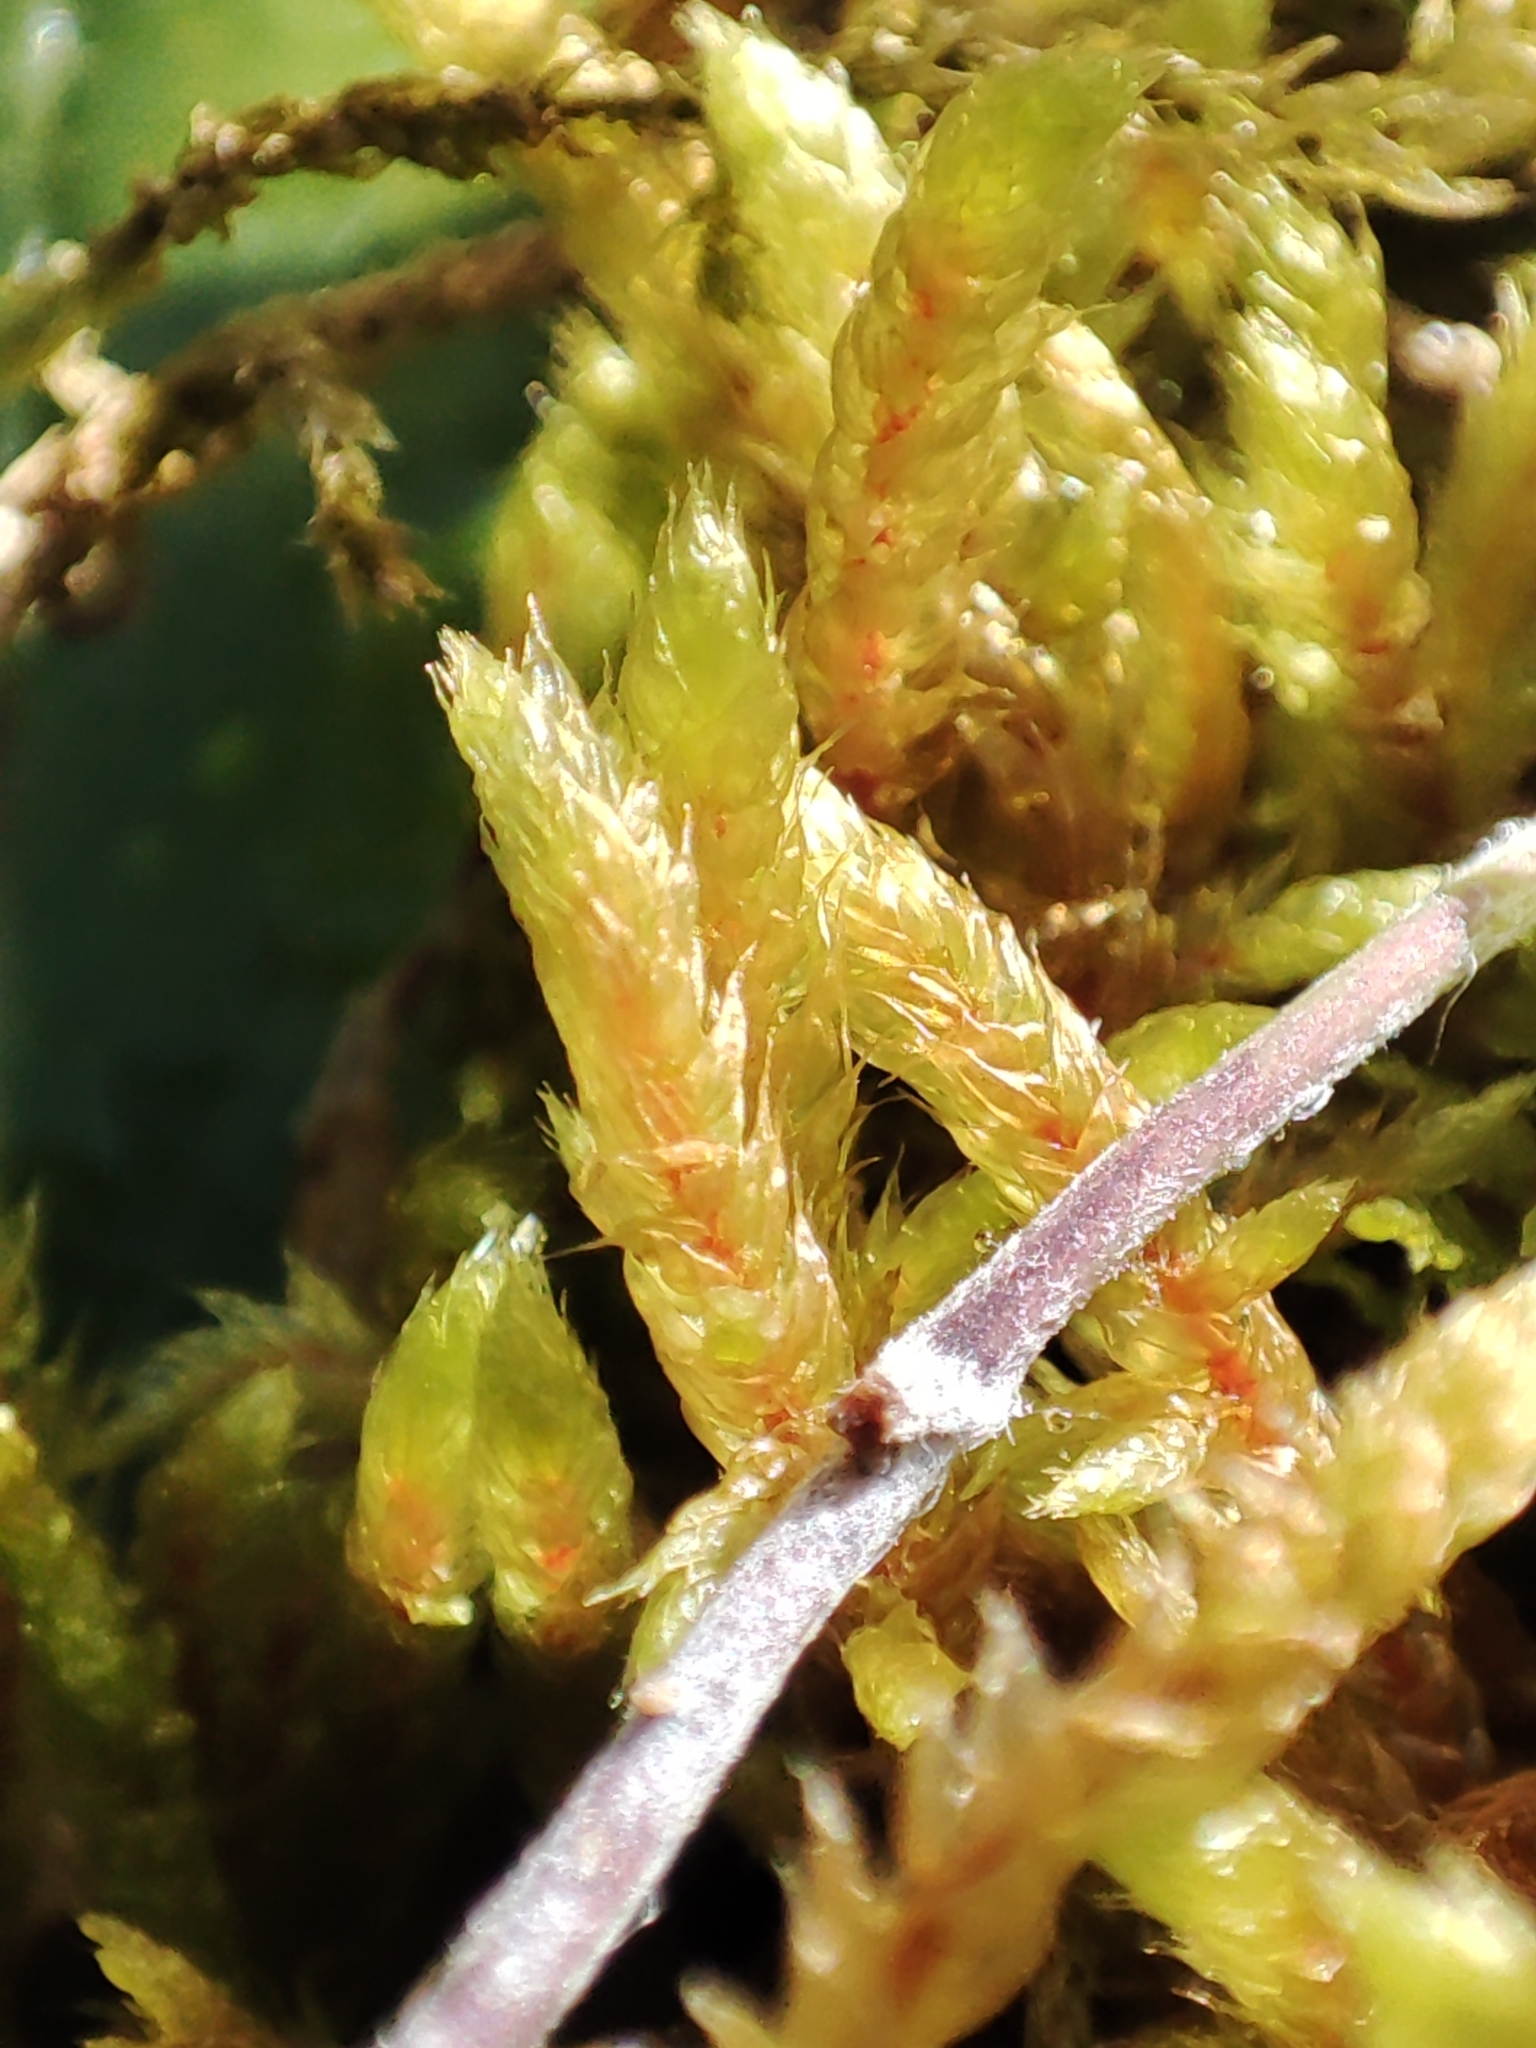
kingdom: Plantae
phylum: Bryophyta
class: Bryopsida
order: Hypnales
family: Hylocomiaceae
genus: Pleurozium
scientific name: Pleurozium schreberi
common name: Red-stemmed feather moss
